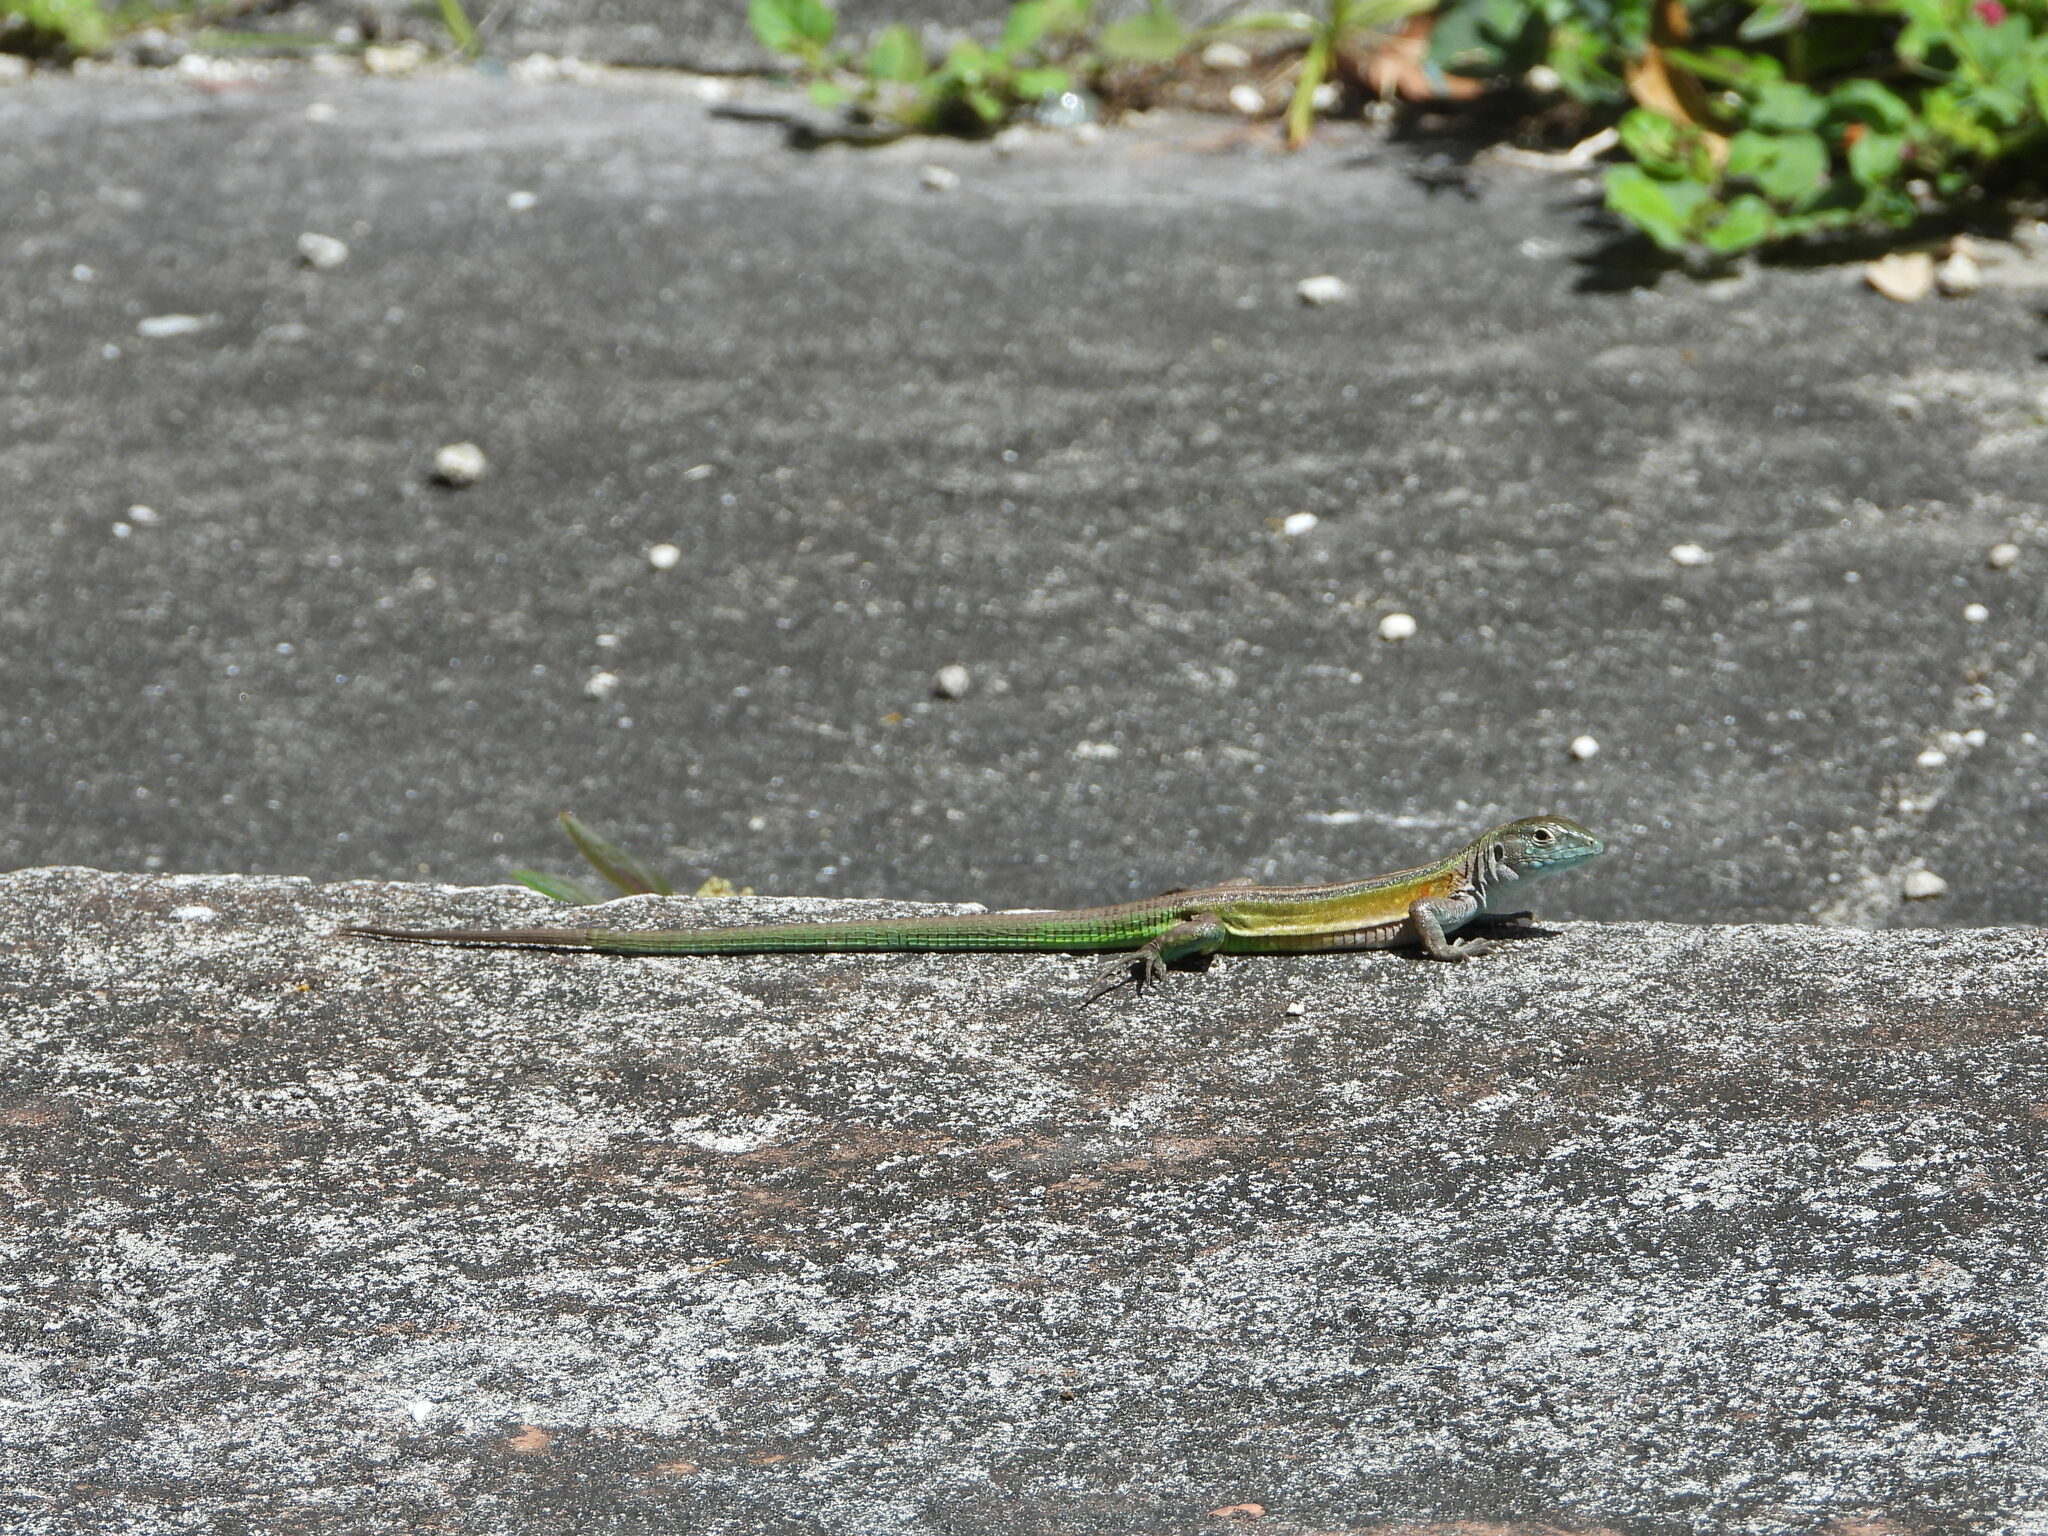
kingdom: Animalia
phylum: Chordata
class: Squamata
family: Teiidae
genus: Cnemidophorus
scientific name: Cnemidophorus lemniscatus
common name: Rainbow whiptail
